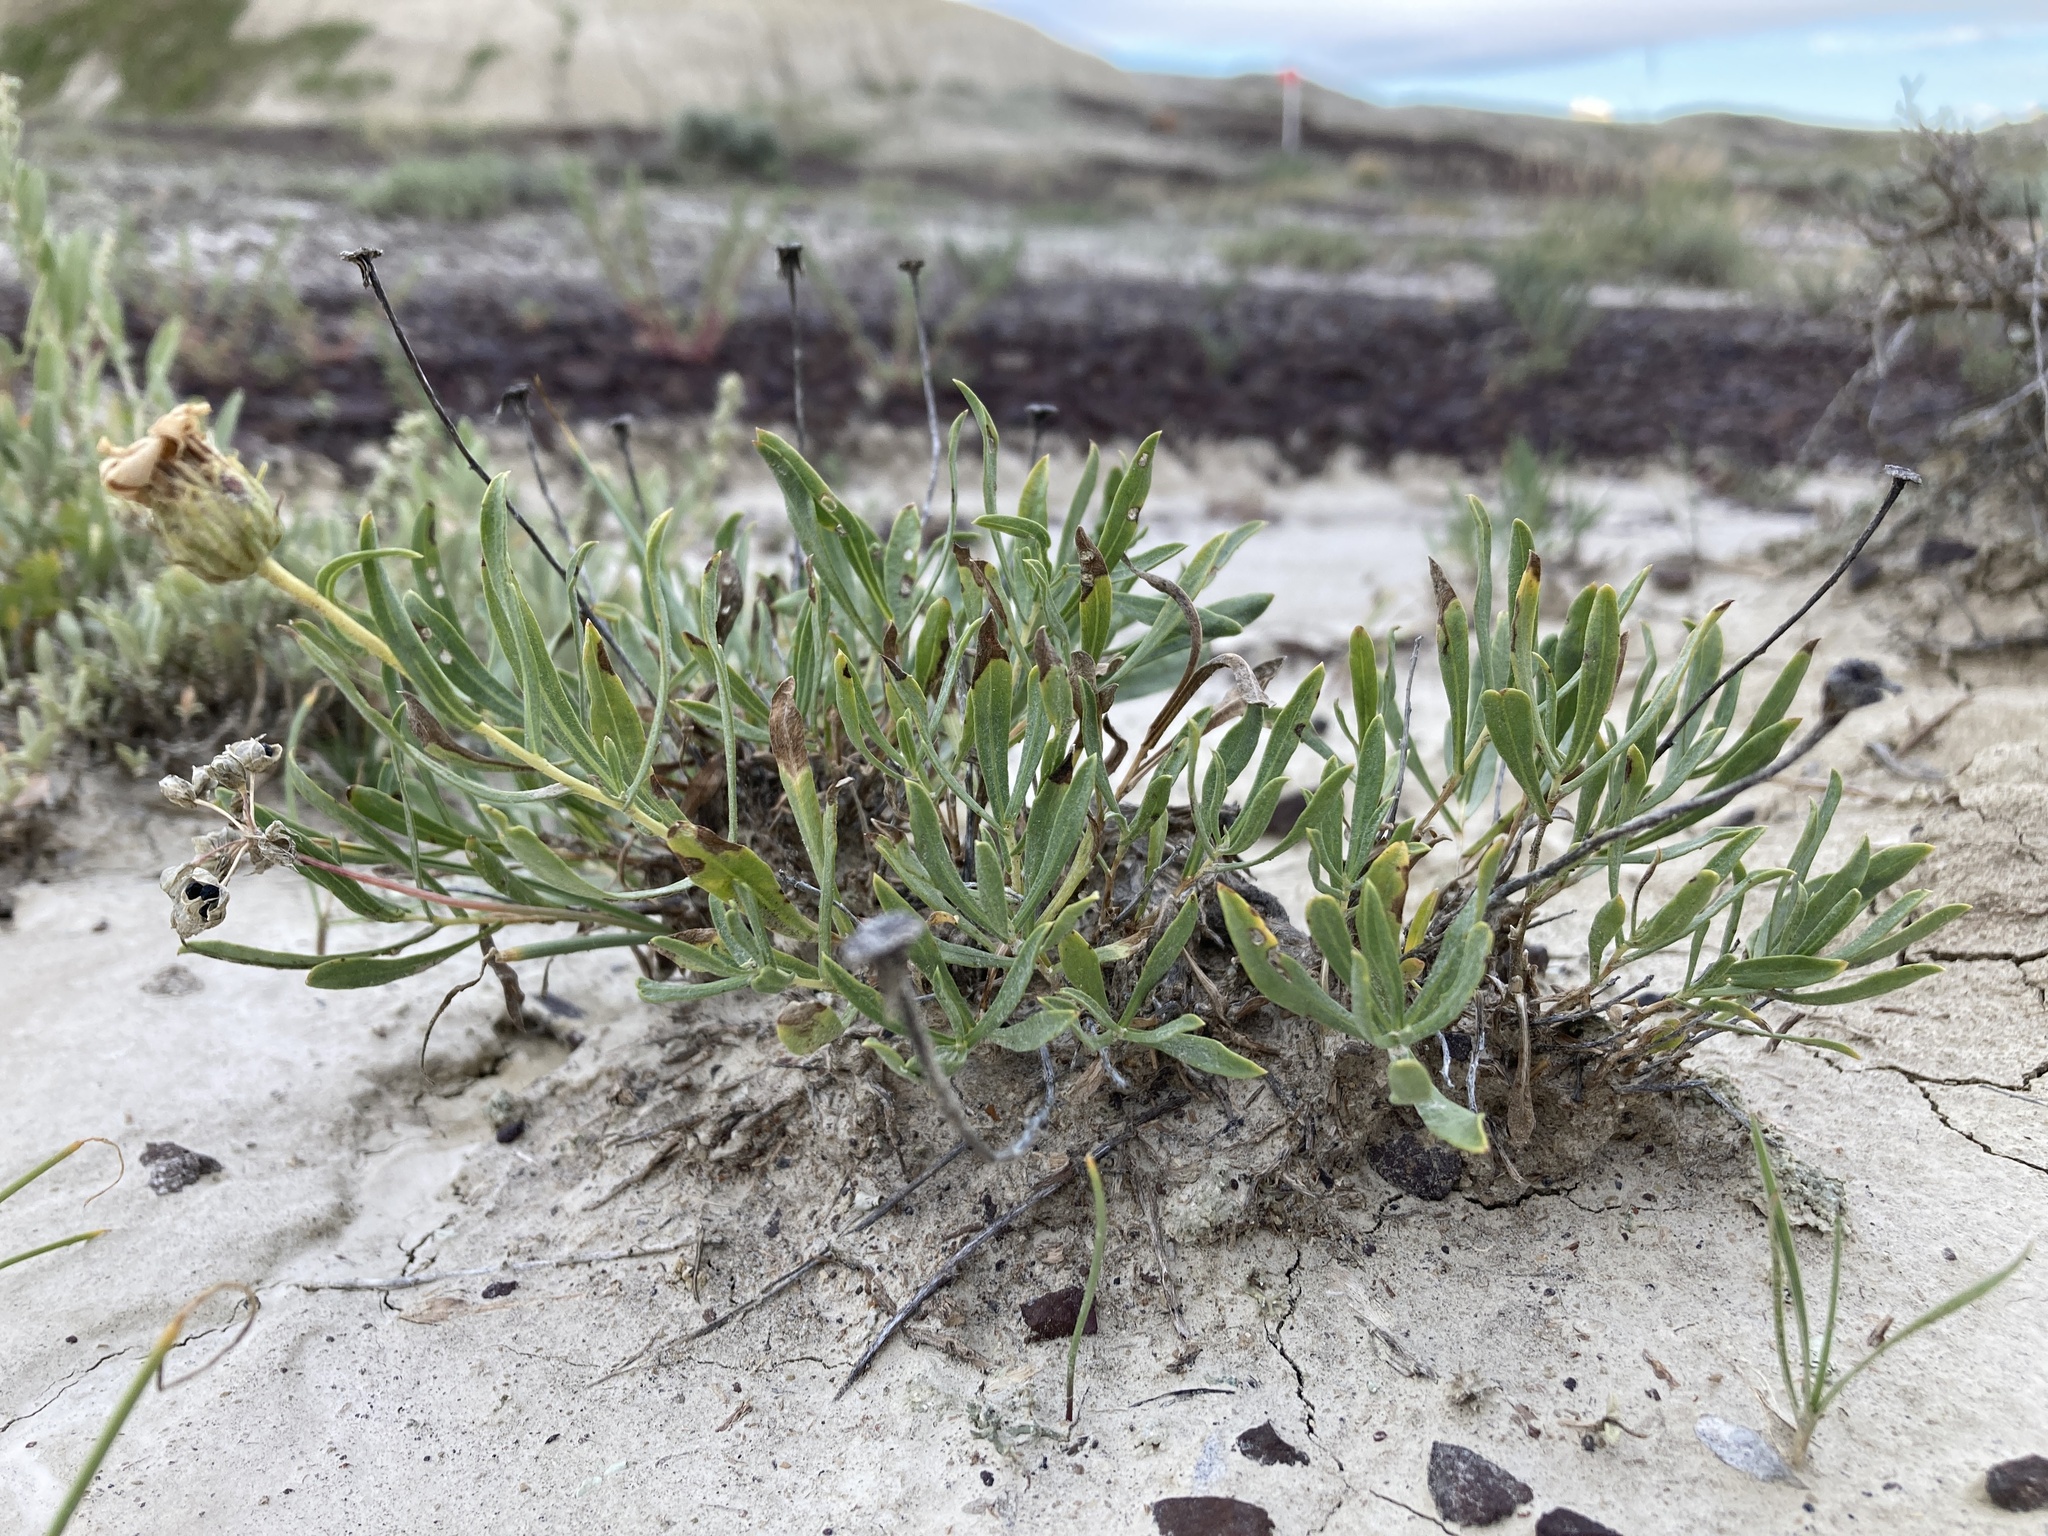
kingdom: Plantae
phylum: Tracheophyta
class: Magnoliopsida
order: Asterales
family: Asteraceae
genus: Xylorhiza
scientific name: Xylorhiza glabriuscula
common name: Smooth woody-aster
